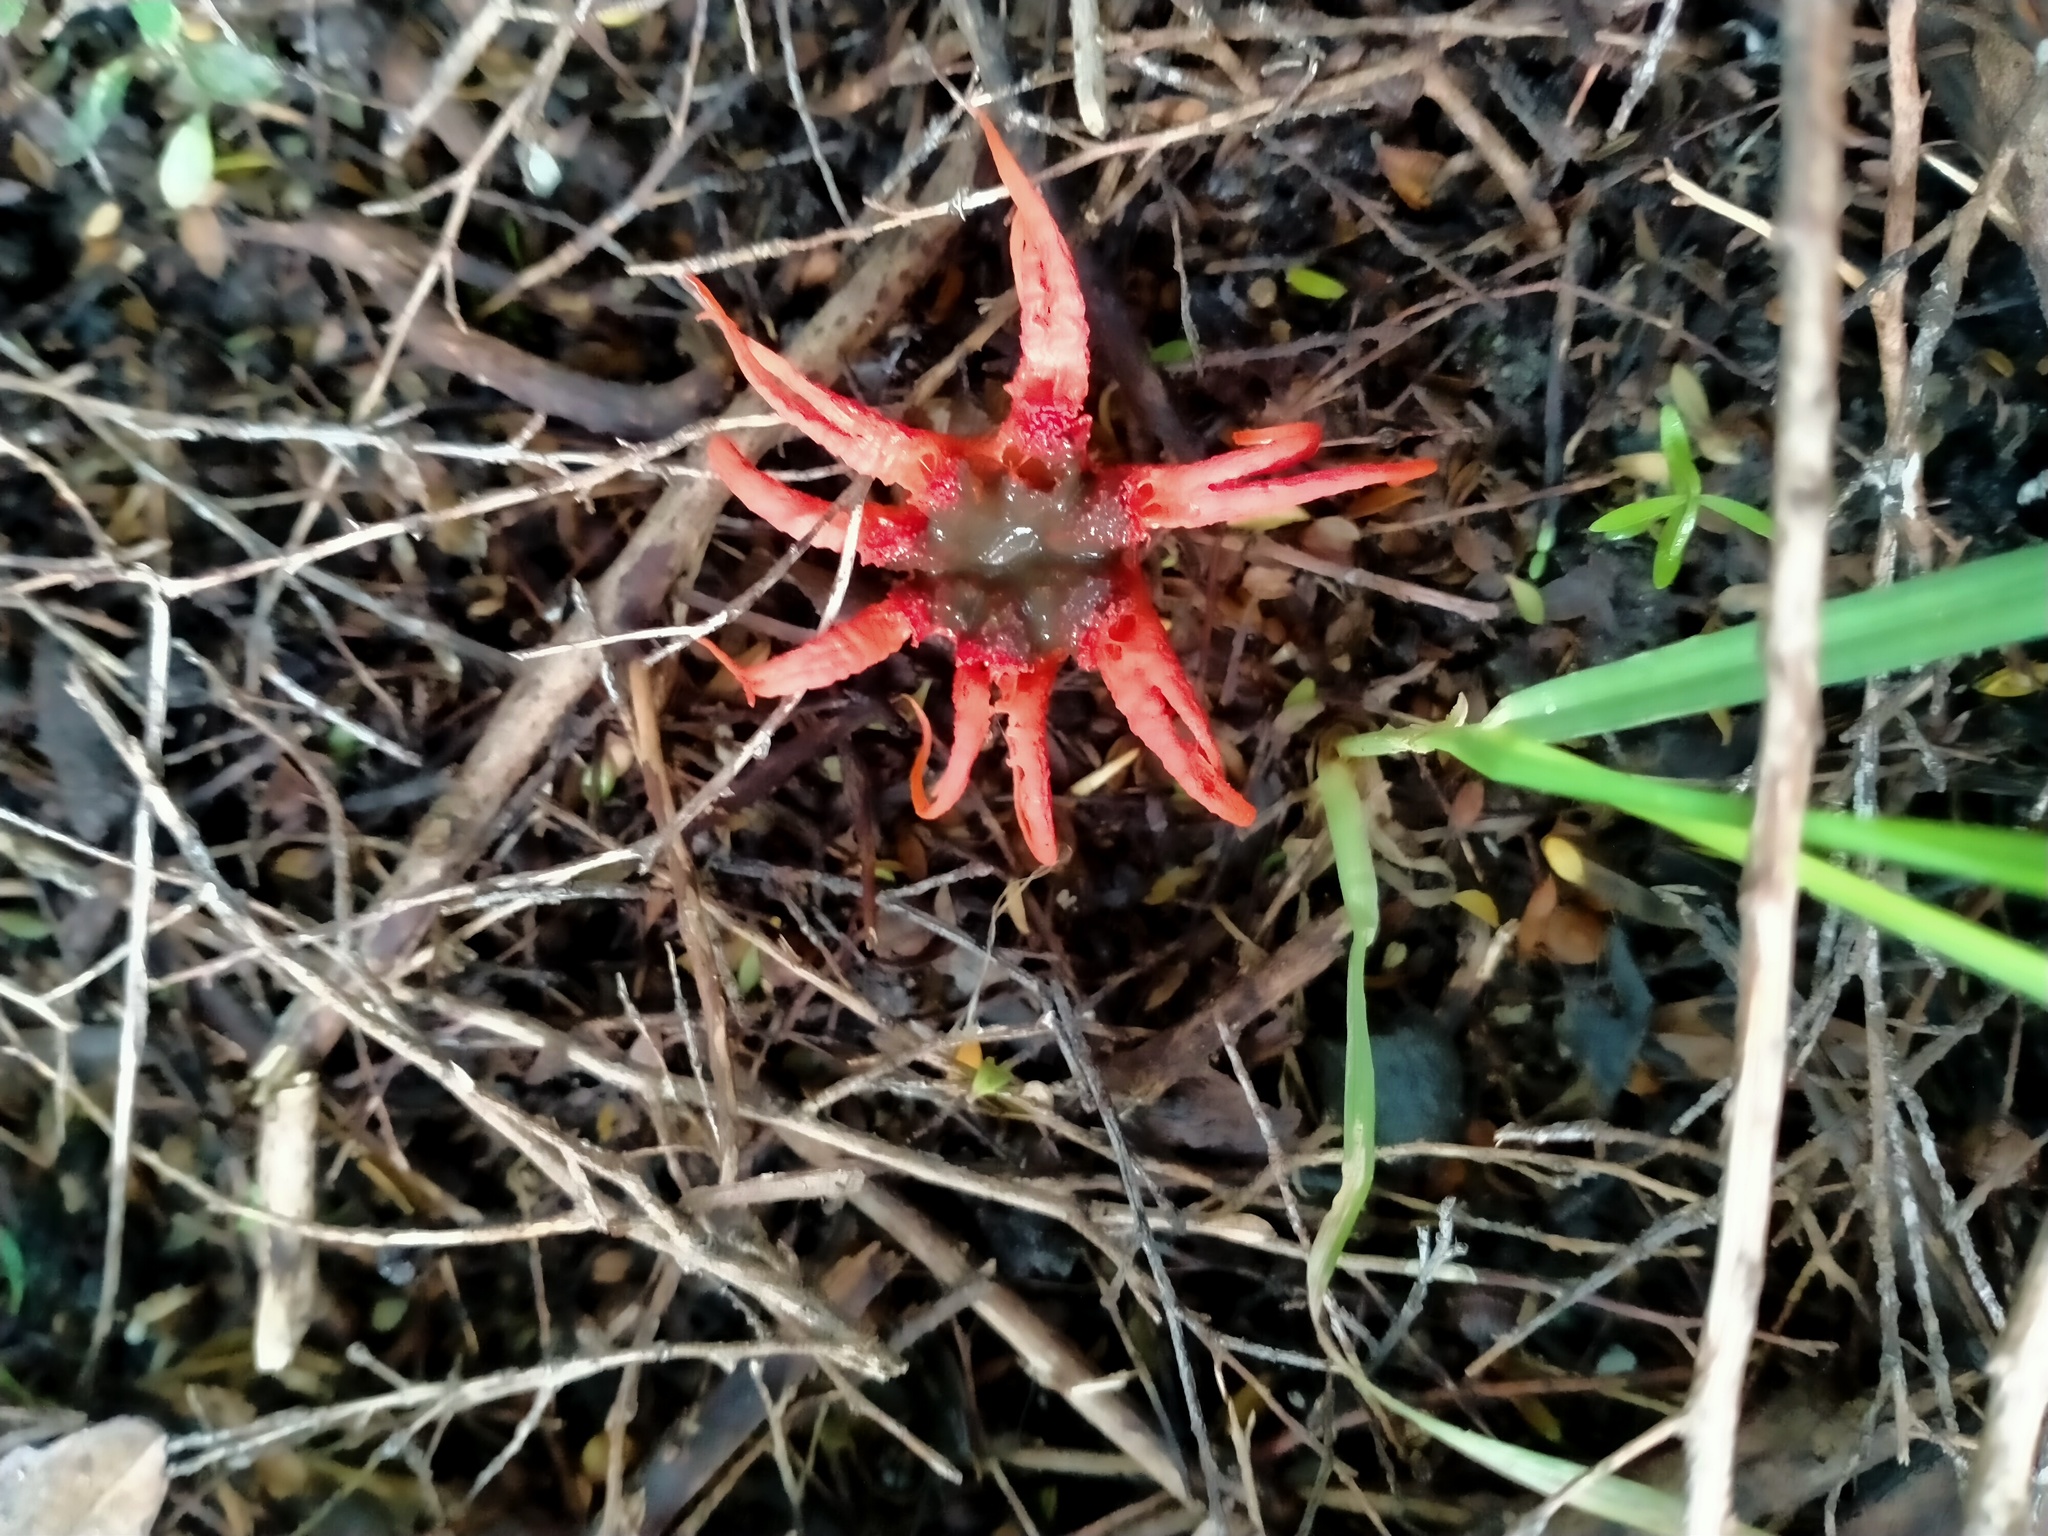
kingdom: Fungi
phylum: Basidiomycota
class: Agaricomycetes
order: Phallales
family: Phallaceae
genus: Aseroe
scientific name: Aseroe rubra
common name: Starfish fungus
